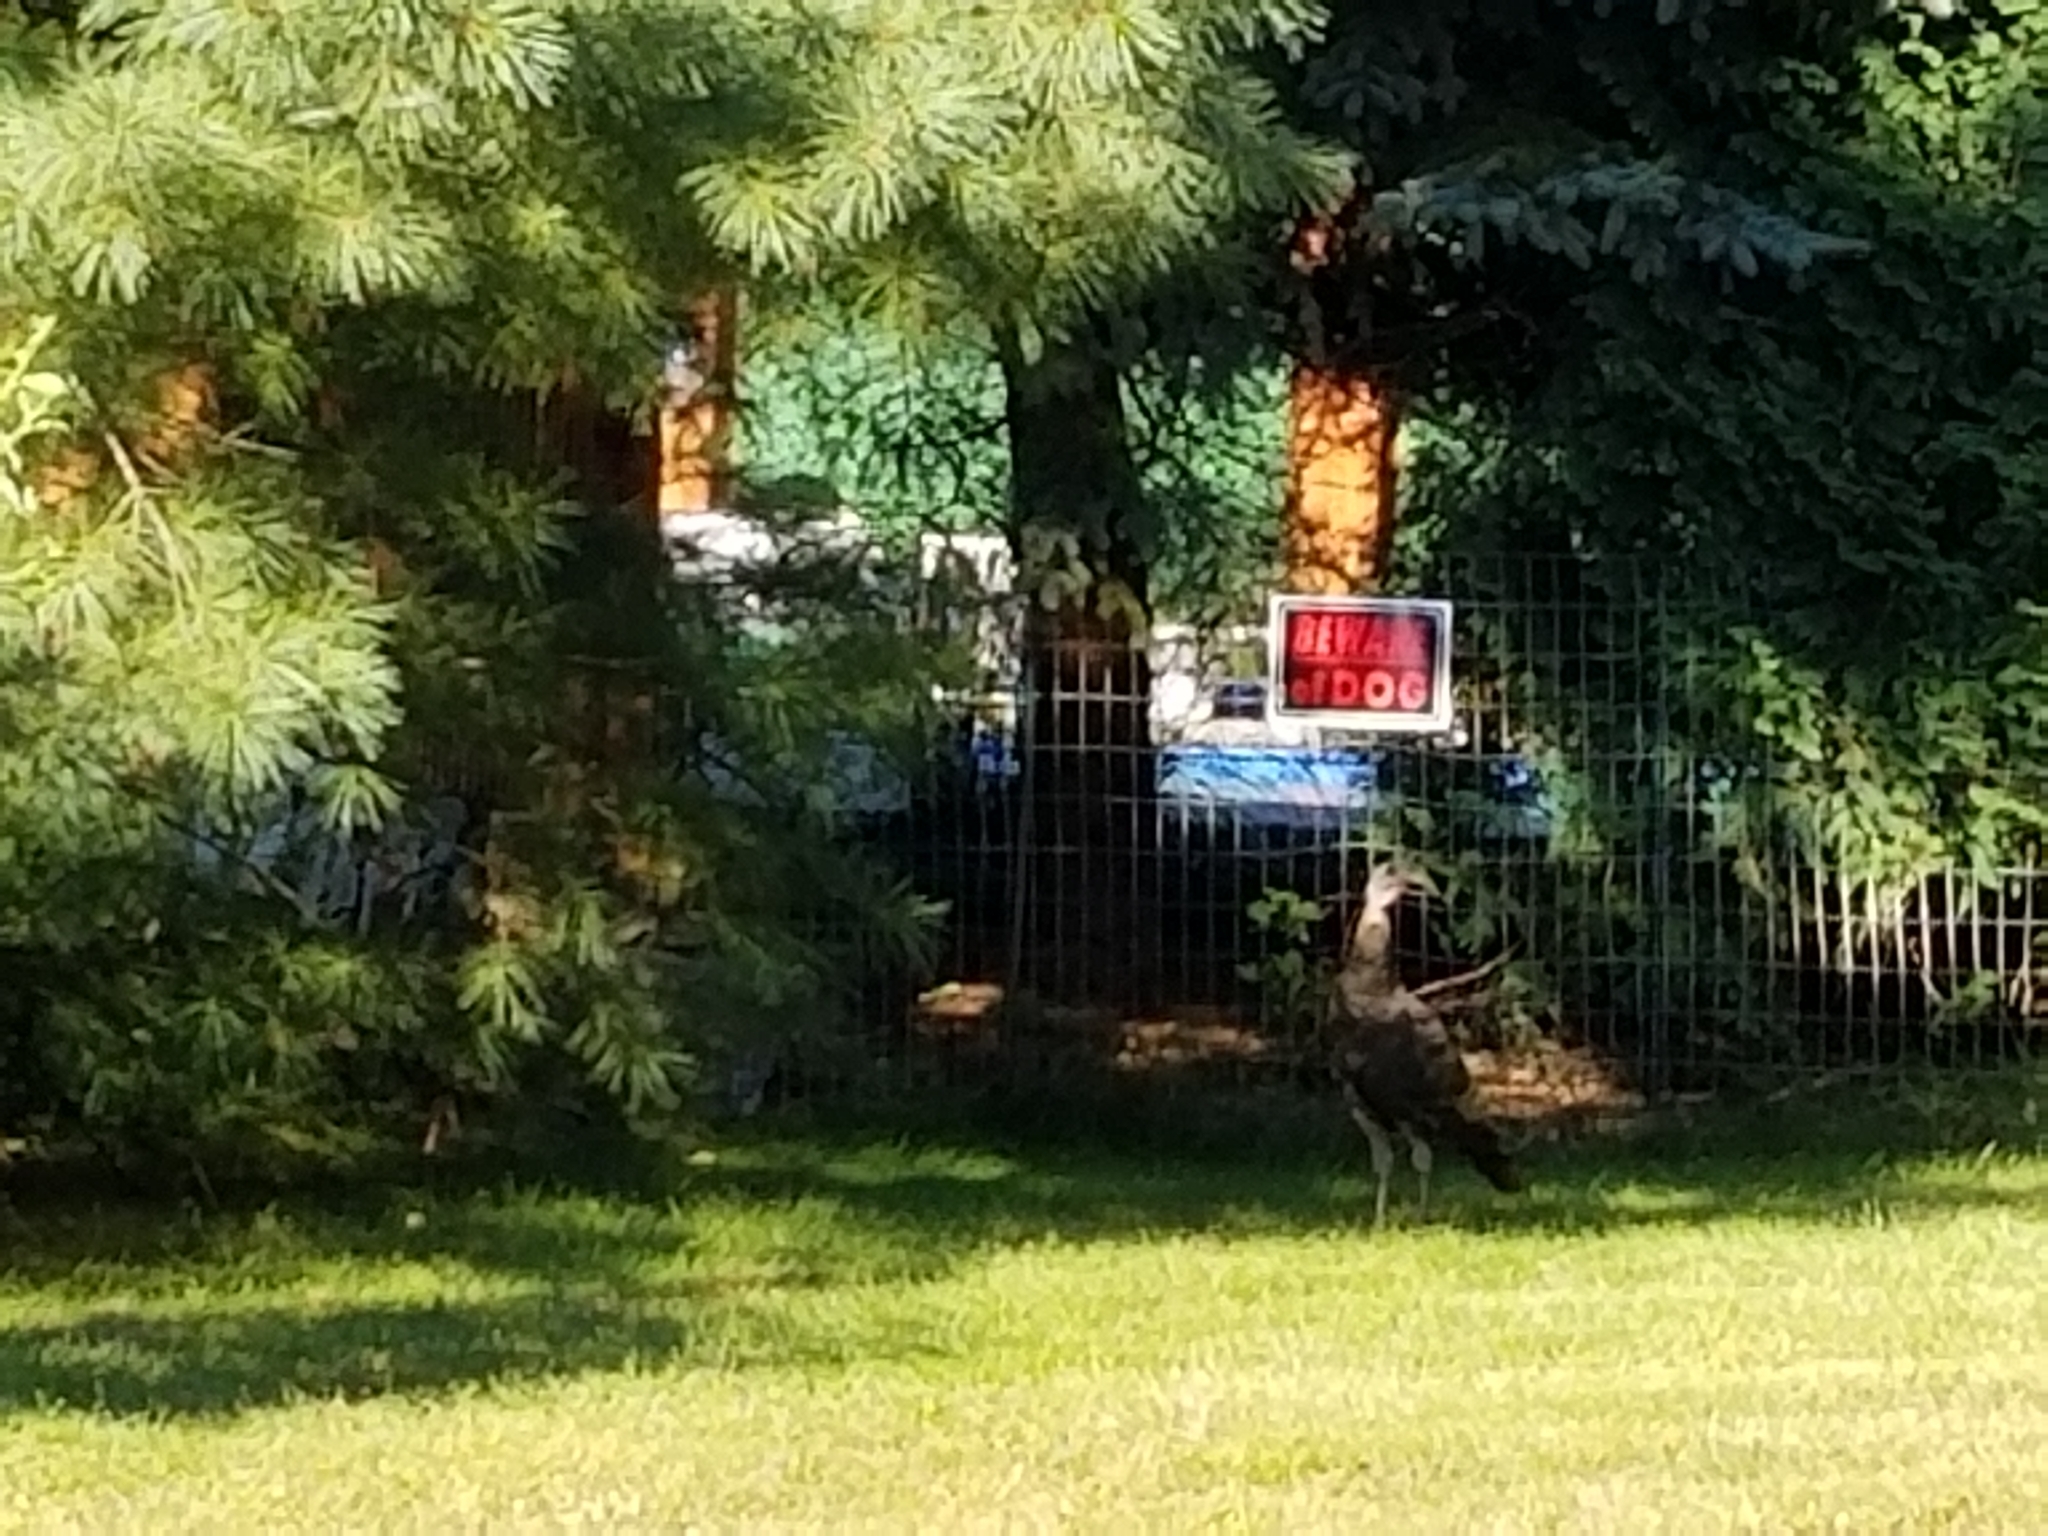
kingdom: Animalia
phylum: Chordata
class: Aves
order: Galliformes
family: Phasianidae
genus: Meleagris
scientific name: Meleagris gallopavo
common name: Wild turkey
